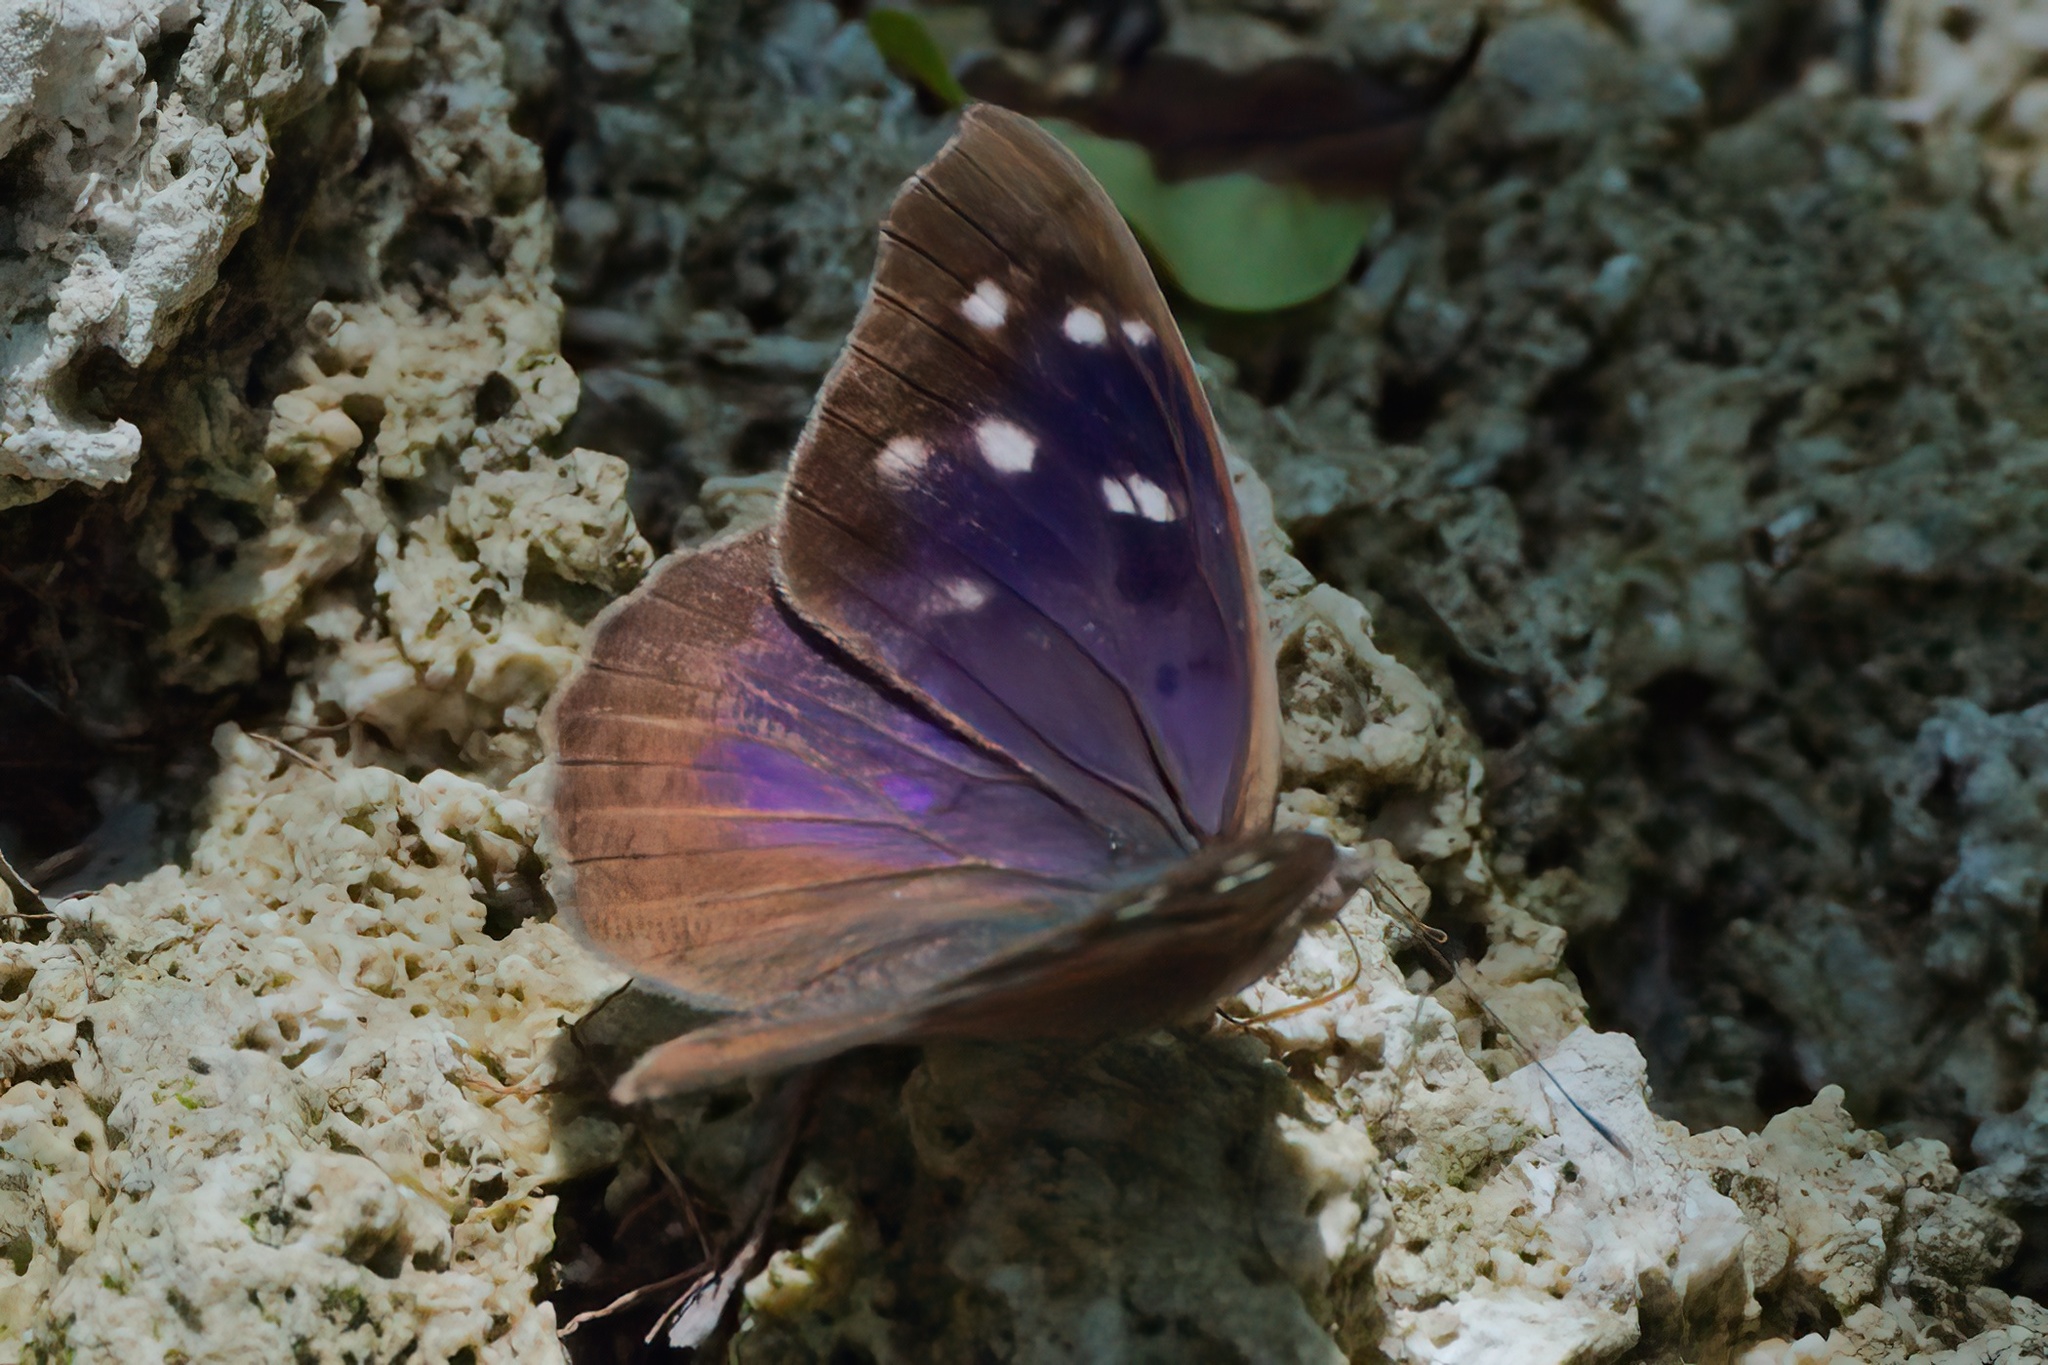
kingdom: Animalia
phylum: Arthropoda
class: Insecta
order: Lepidoptera
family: Nymphalidae
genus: Eunica
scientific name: Eunica tatila
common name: Florida purplewing
